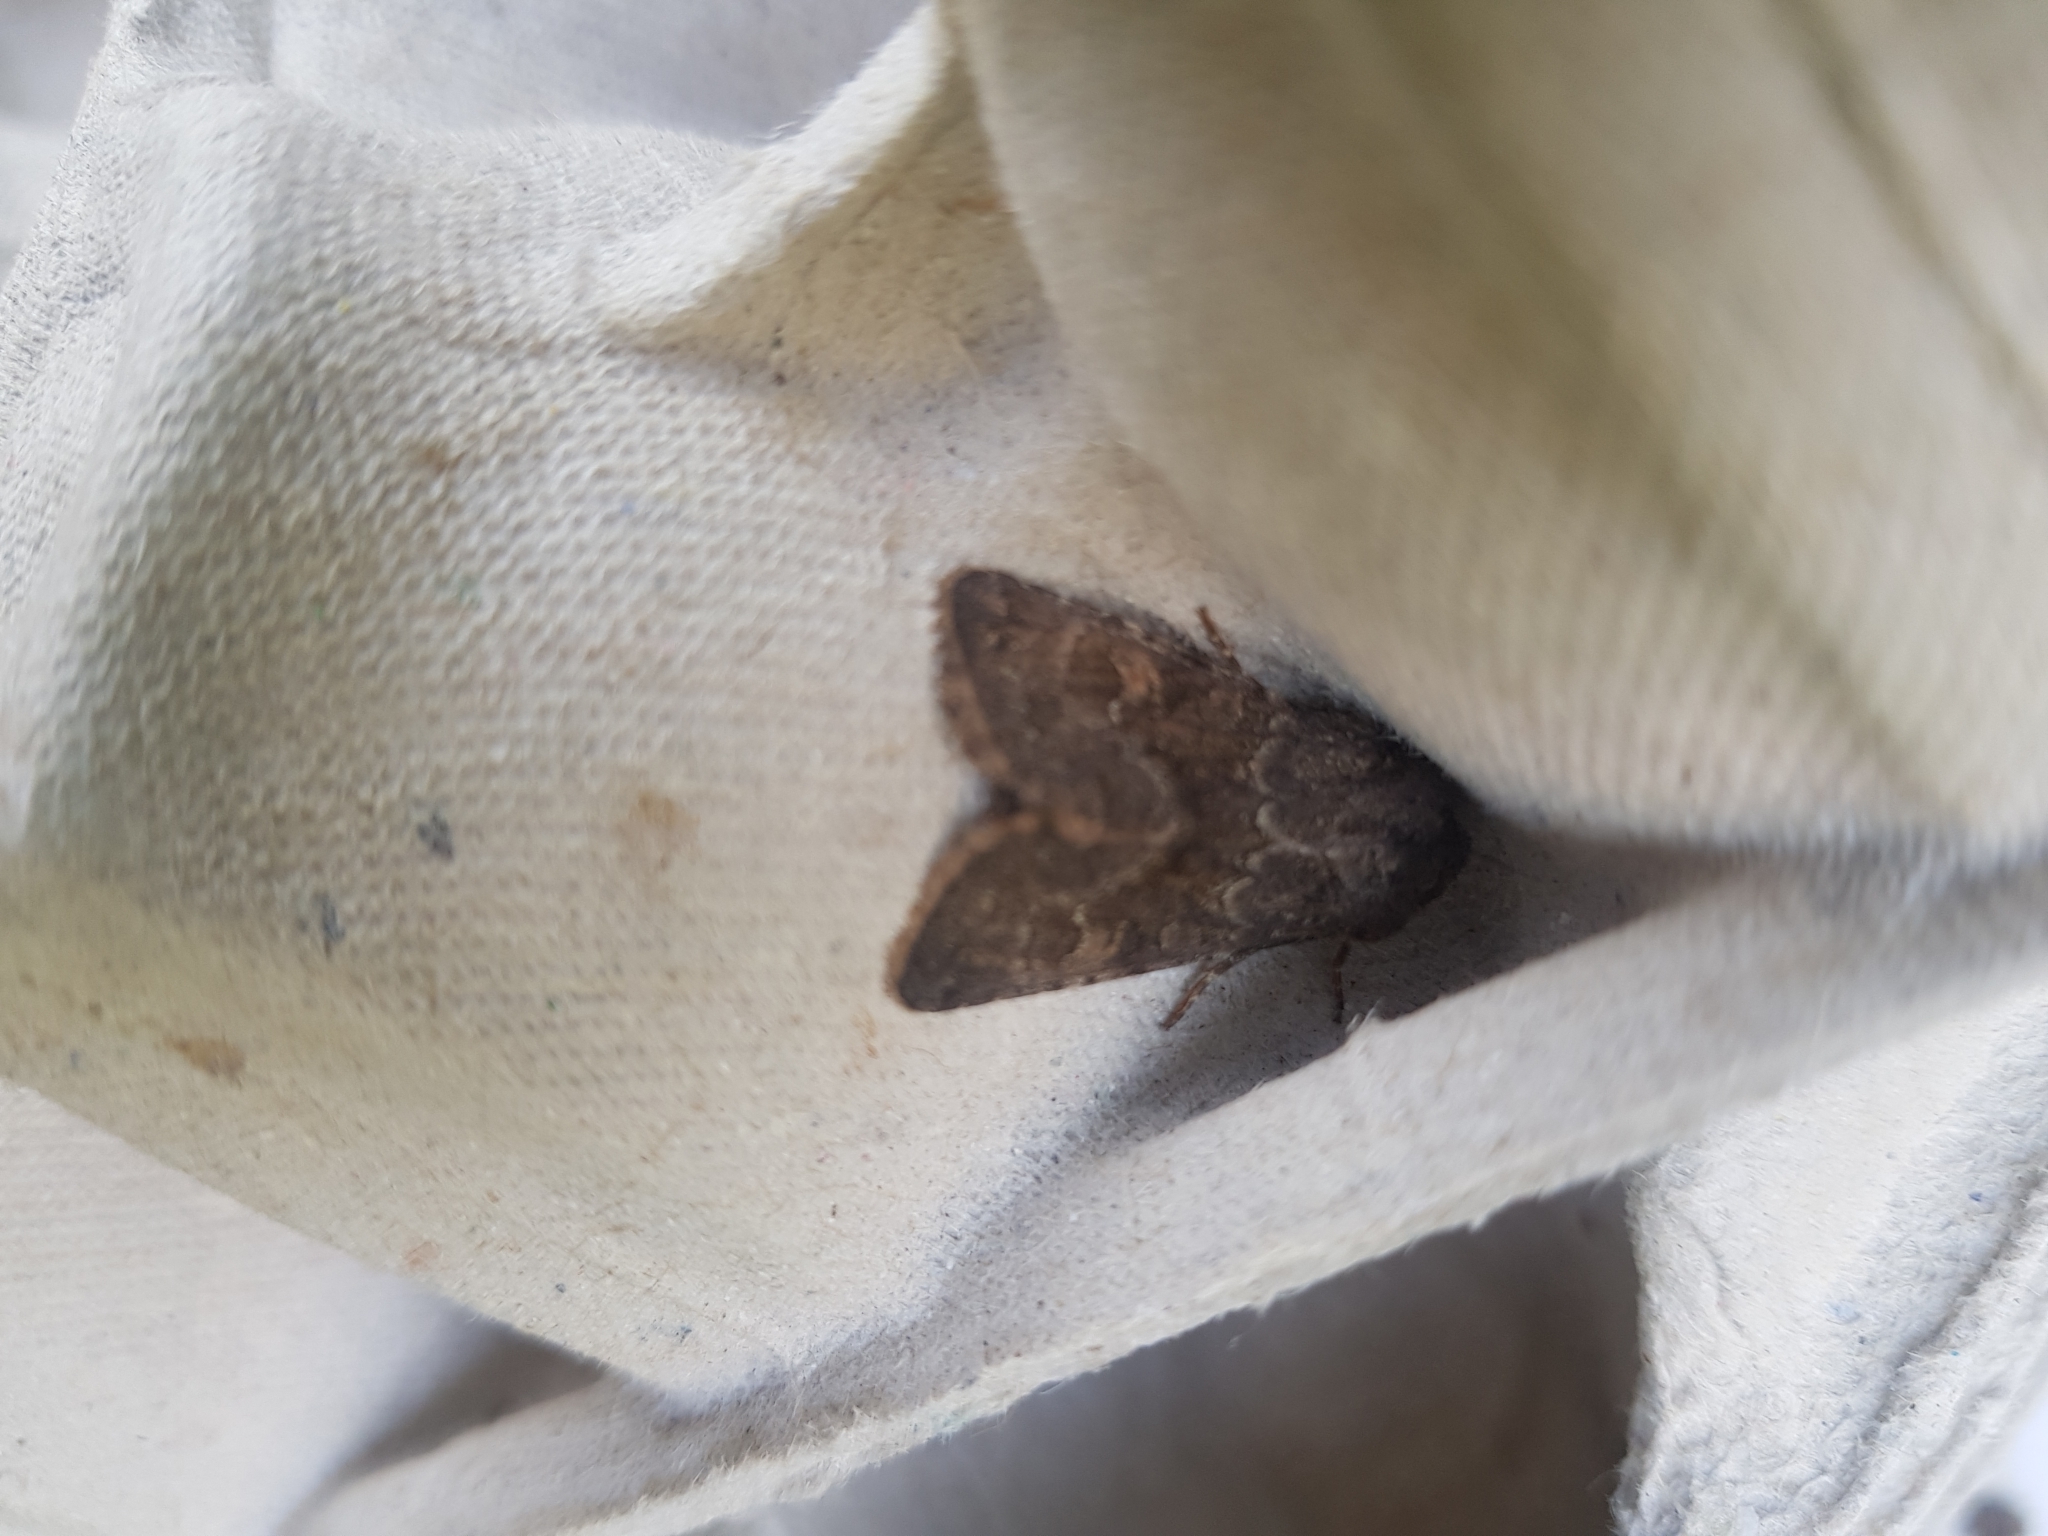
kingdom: Animalia
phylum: Arthropoda
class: Insecta
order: Lepidoptera
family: Noctuidae
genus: Thalpophila
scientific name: Thalpophila matura
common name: Straw underwing
